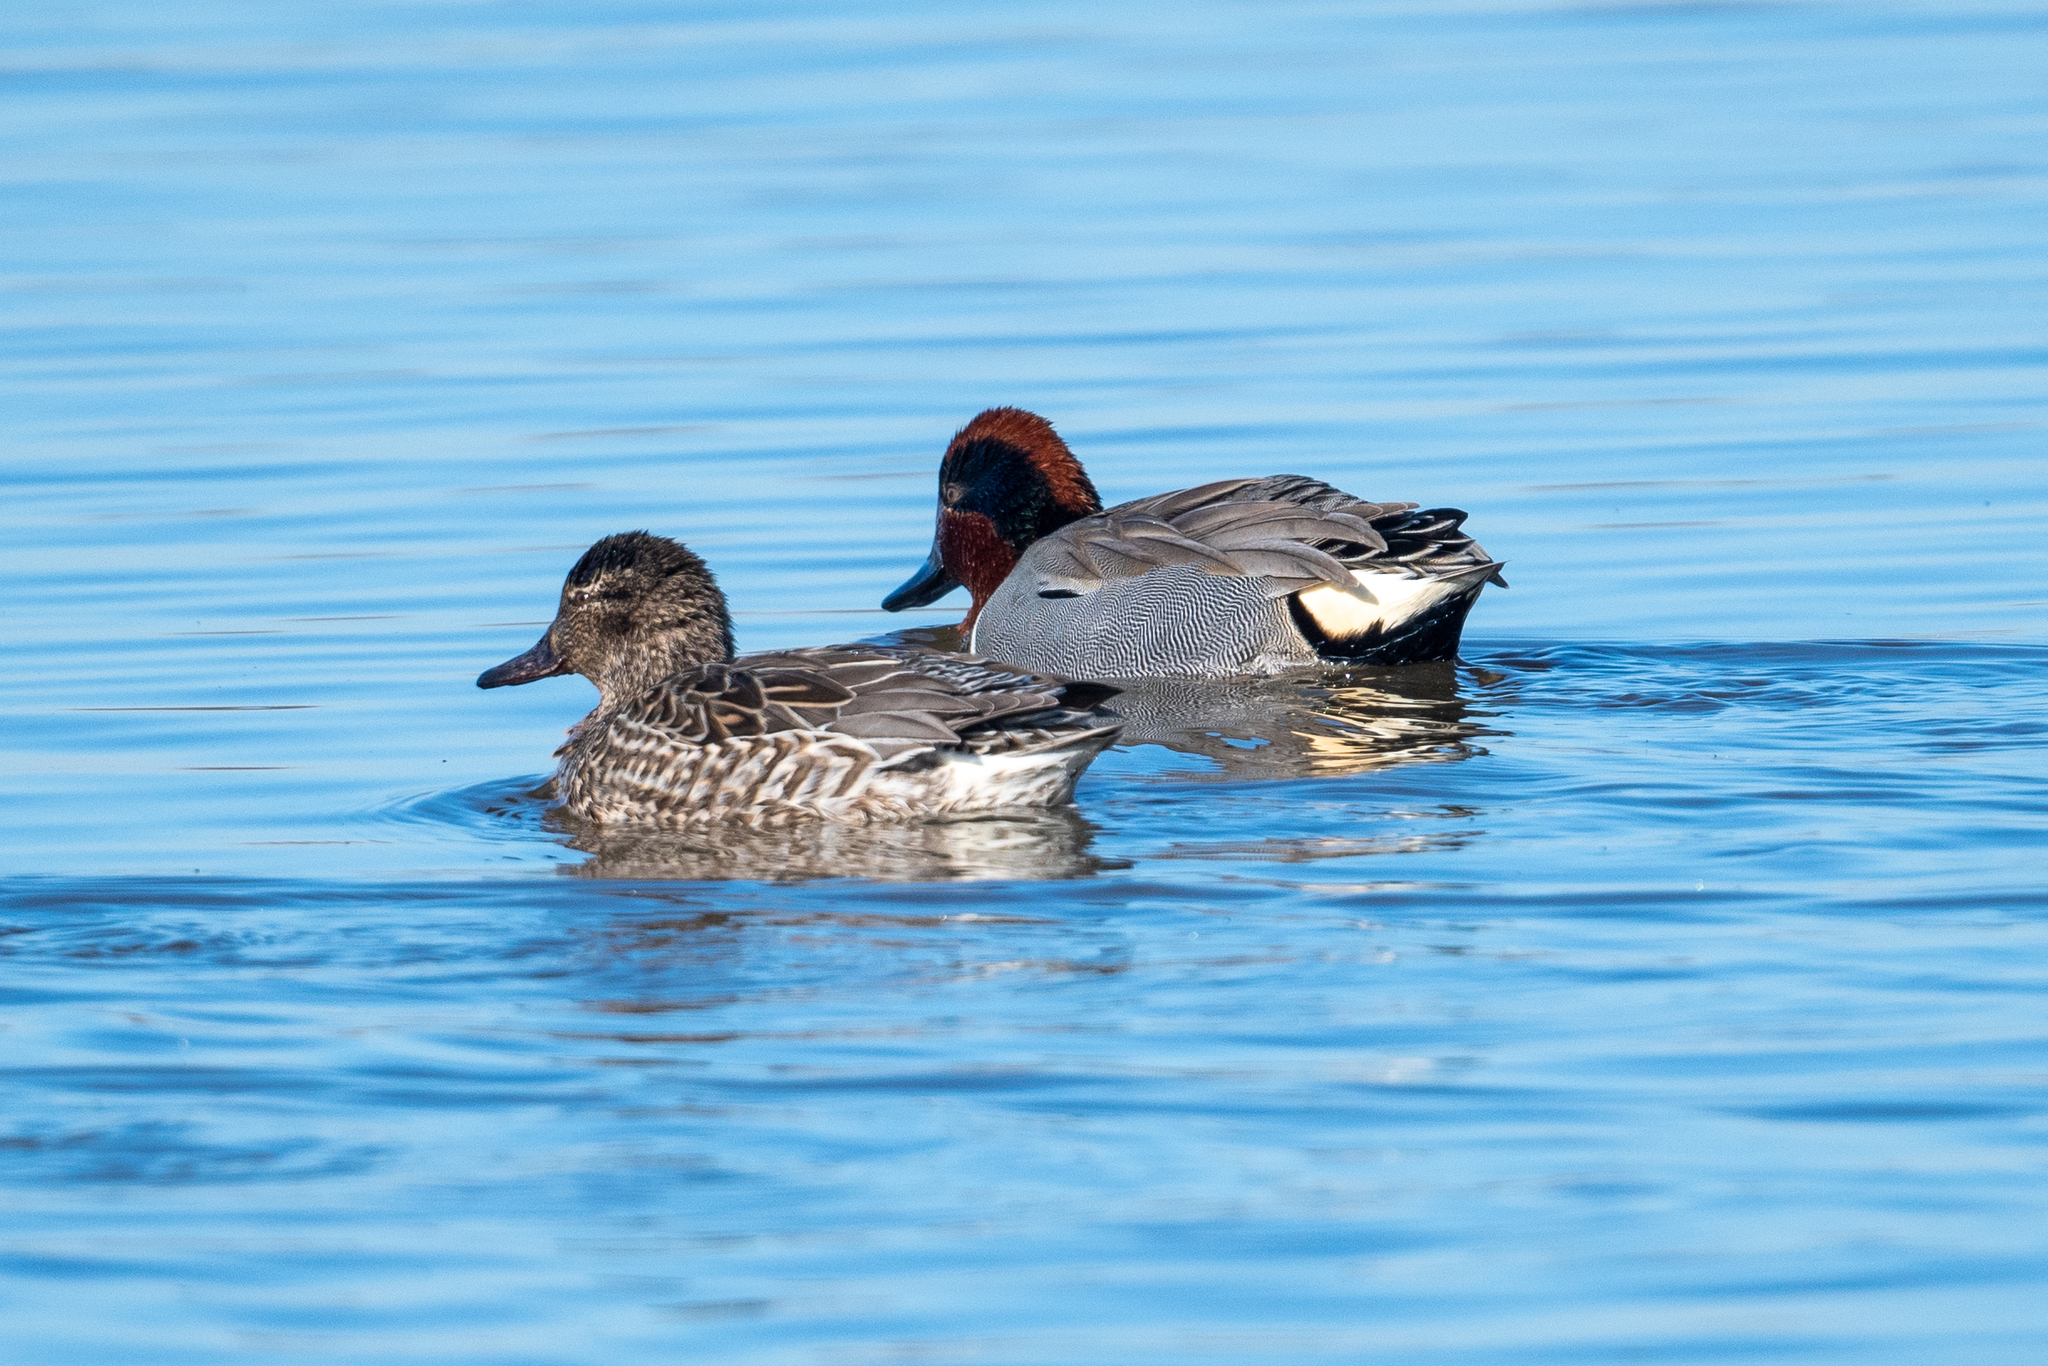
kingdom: Animalia
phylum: Chordata
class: Aves
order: Anseriformes
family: Anatidae
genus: Anas
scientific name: Anas crecca
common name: Eurasian teal
